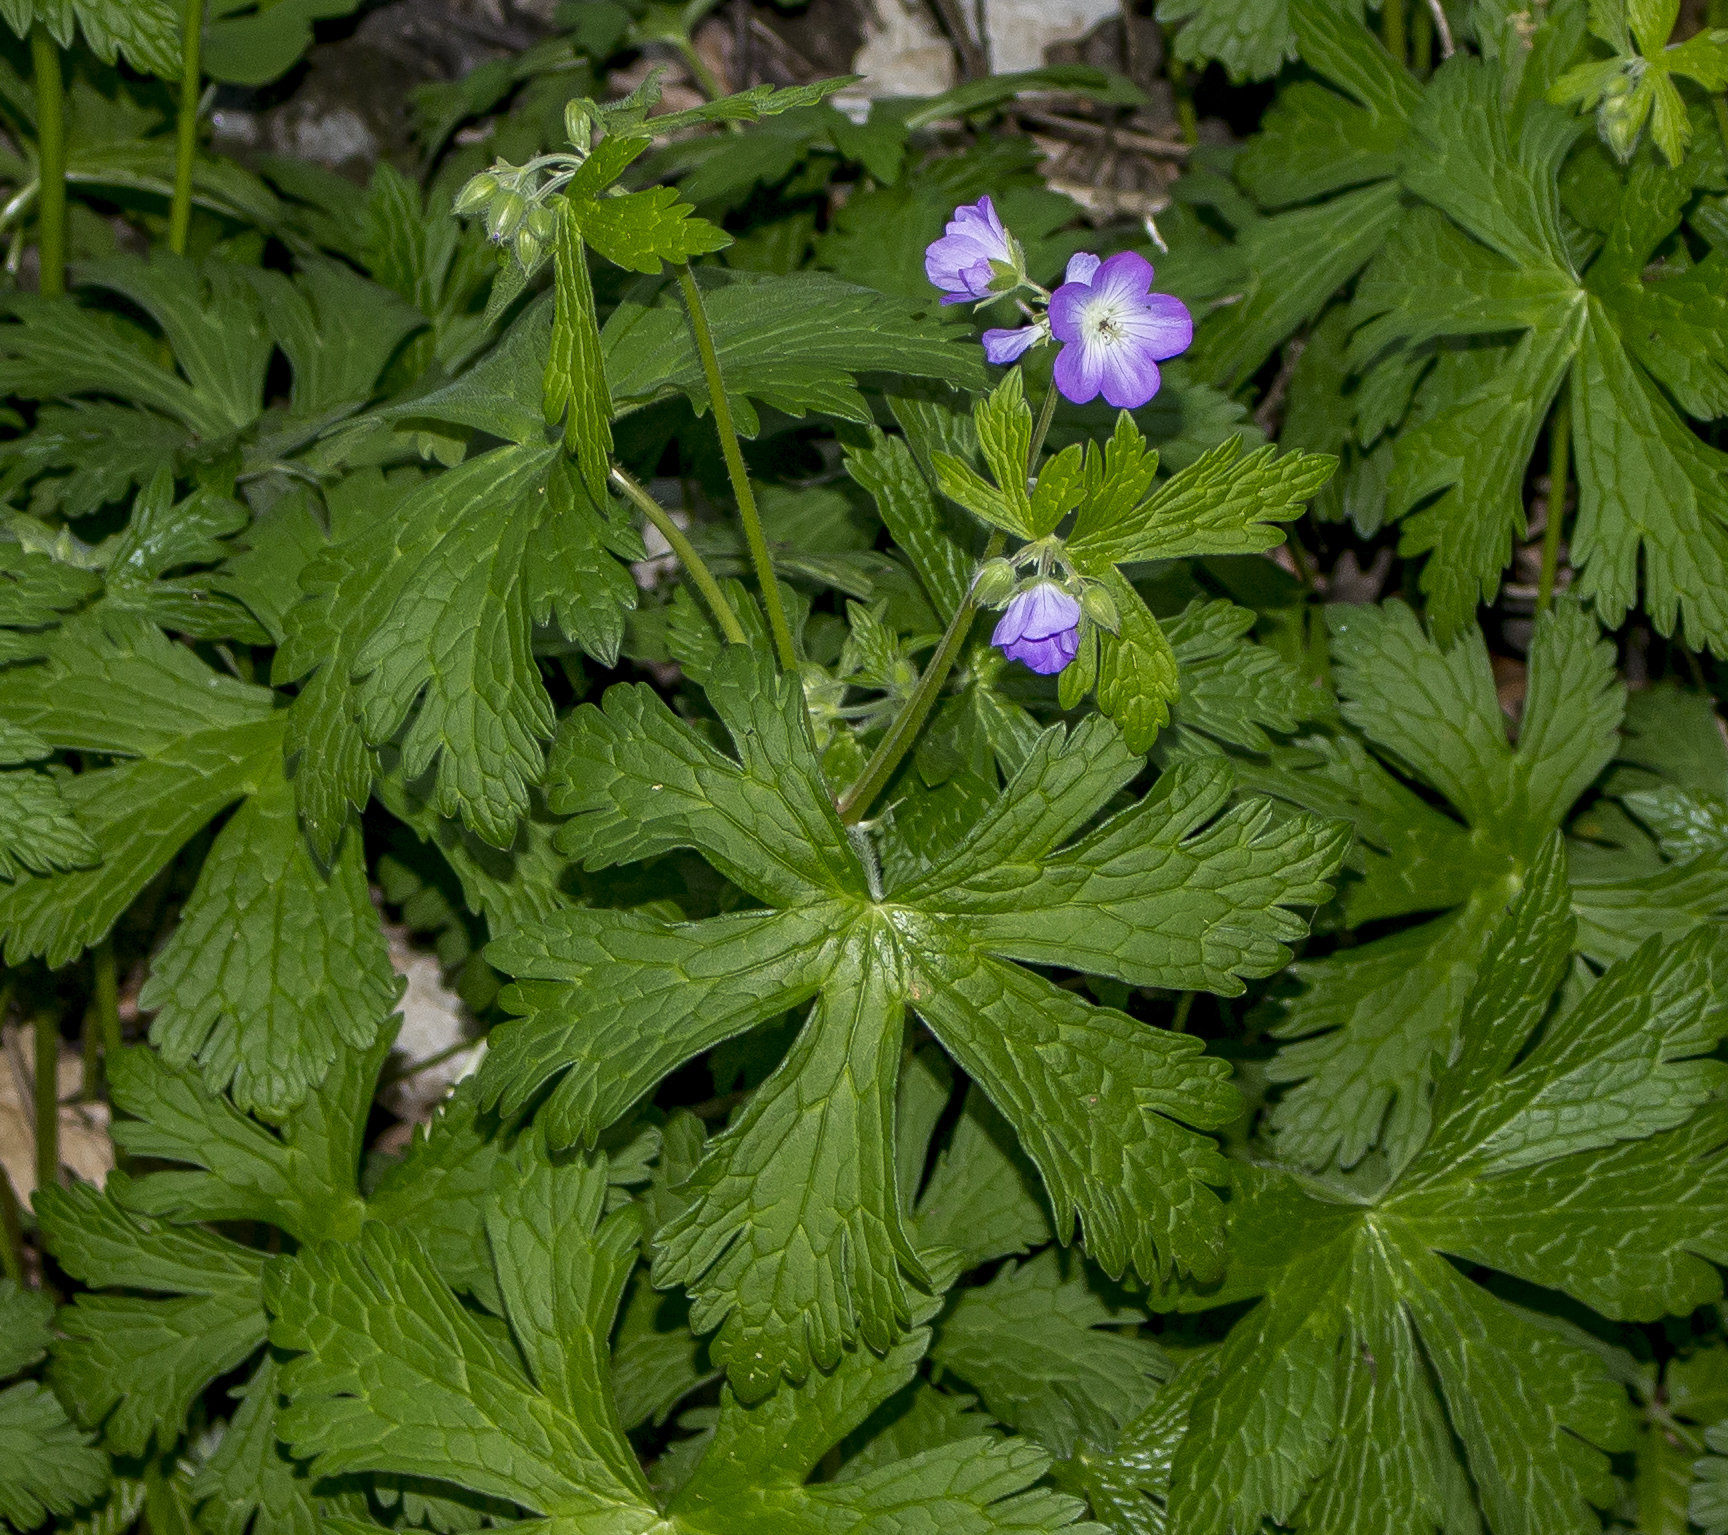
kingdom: Plantae
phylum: Tracheophyta
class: Magnoliopsida
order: Geraniales
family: Geraniaceae
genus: Geranium
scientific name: Geranium maculatum
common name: Spotted geranium
